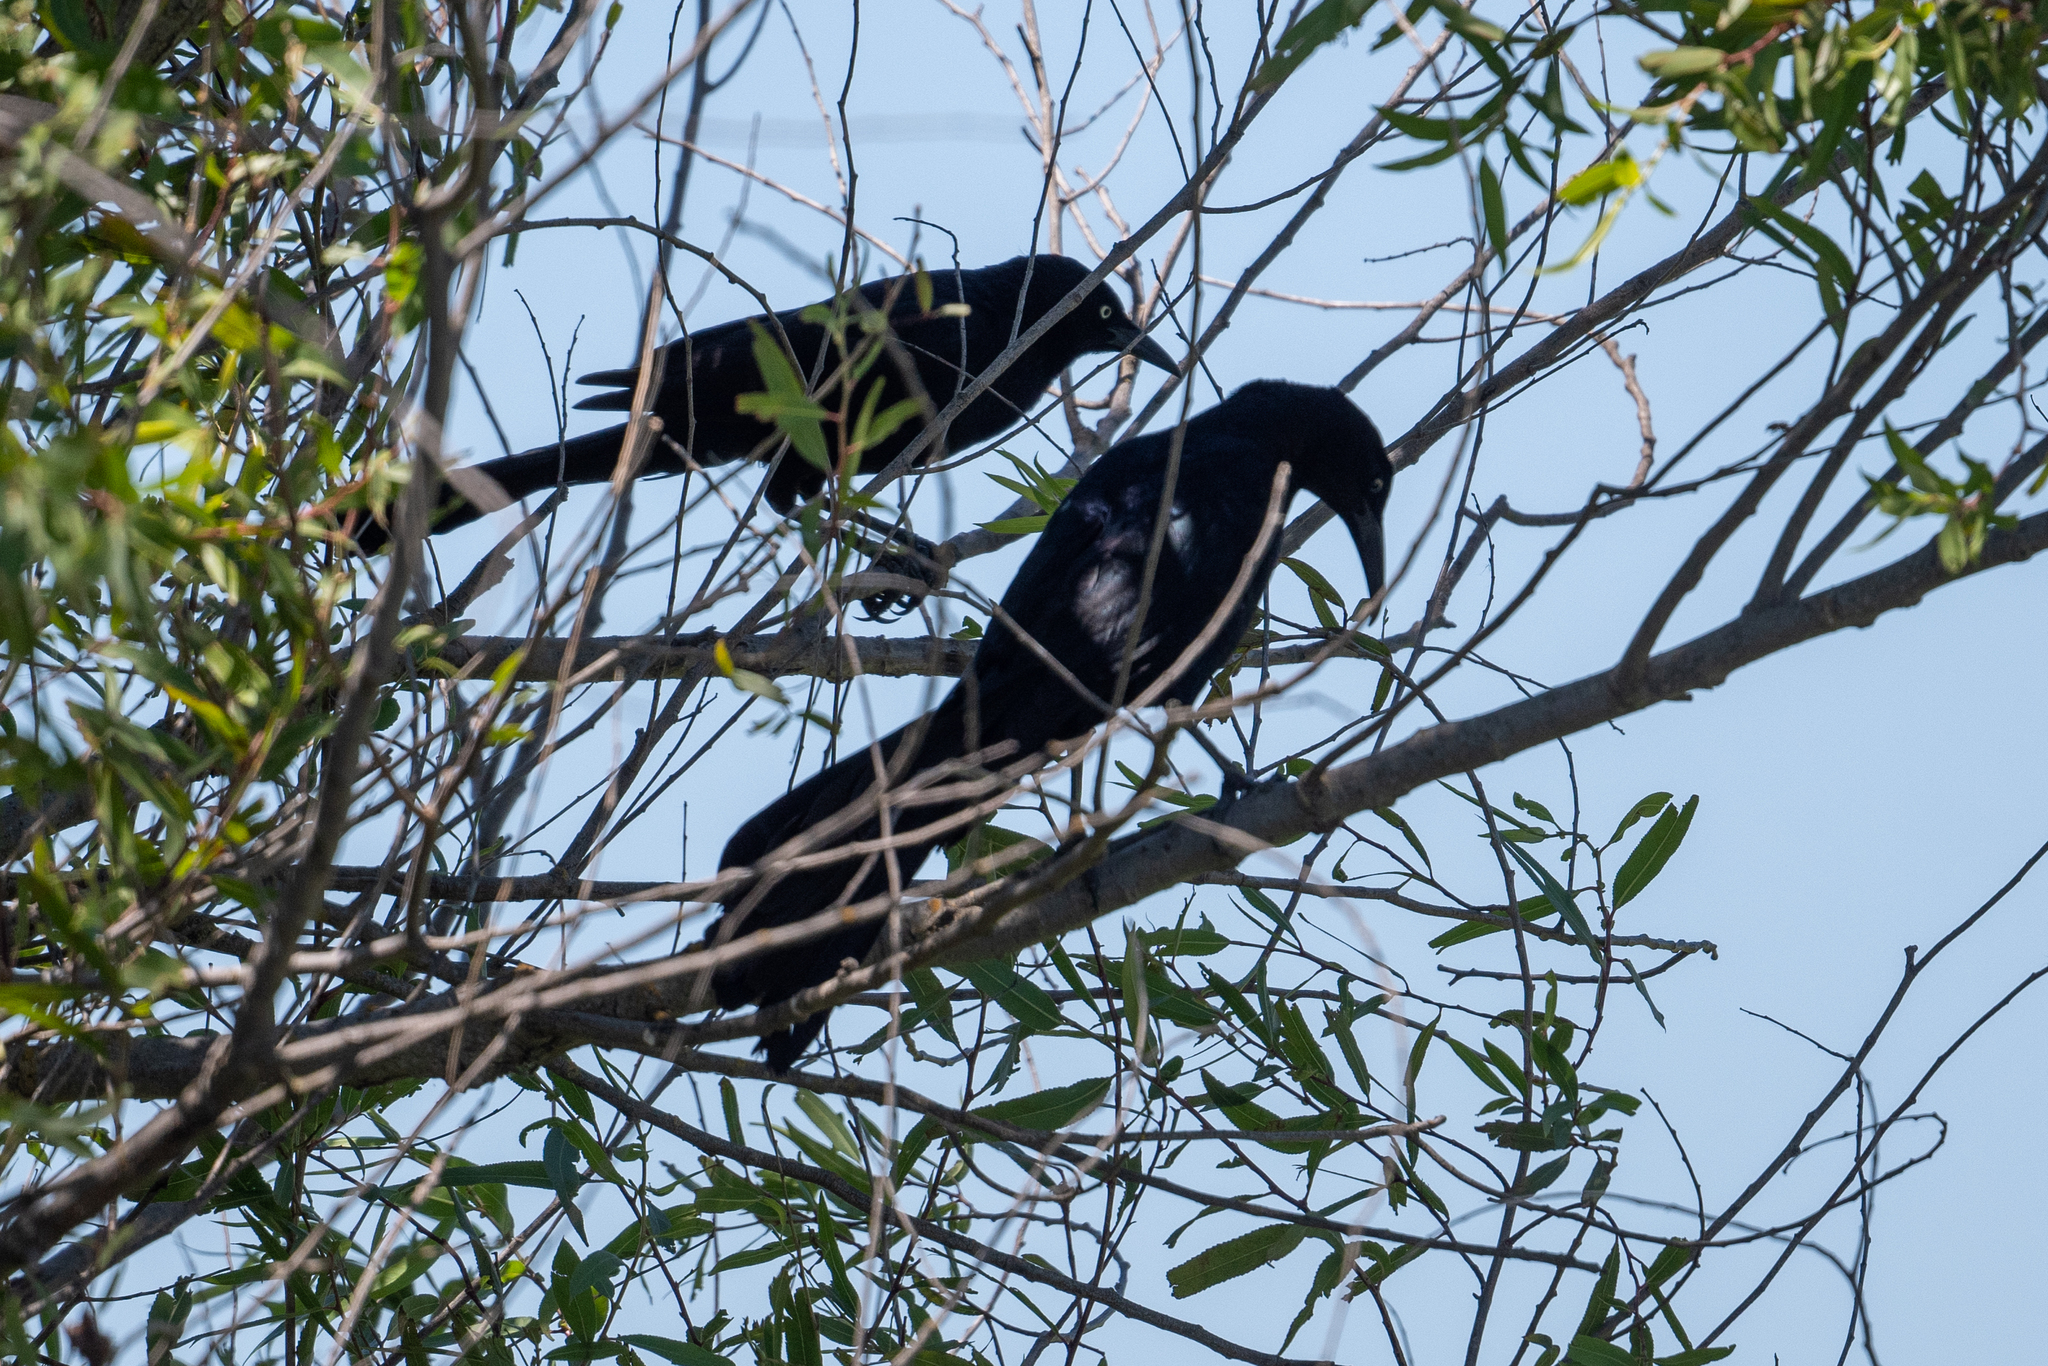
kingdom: Animalia
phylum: Chordata
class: Aves
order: Passeriformes
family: Icteridae
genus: Quiscalus
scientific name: Quiscalus mexicanus
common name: Great-tailed grackle
